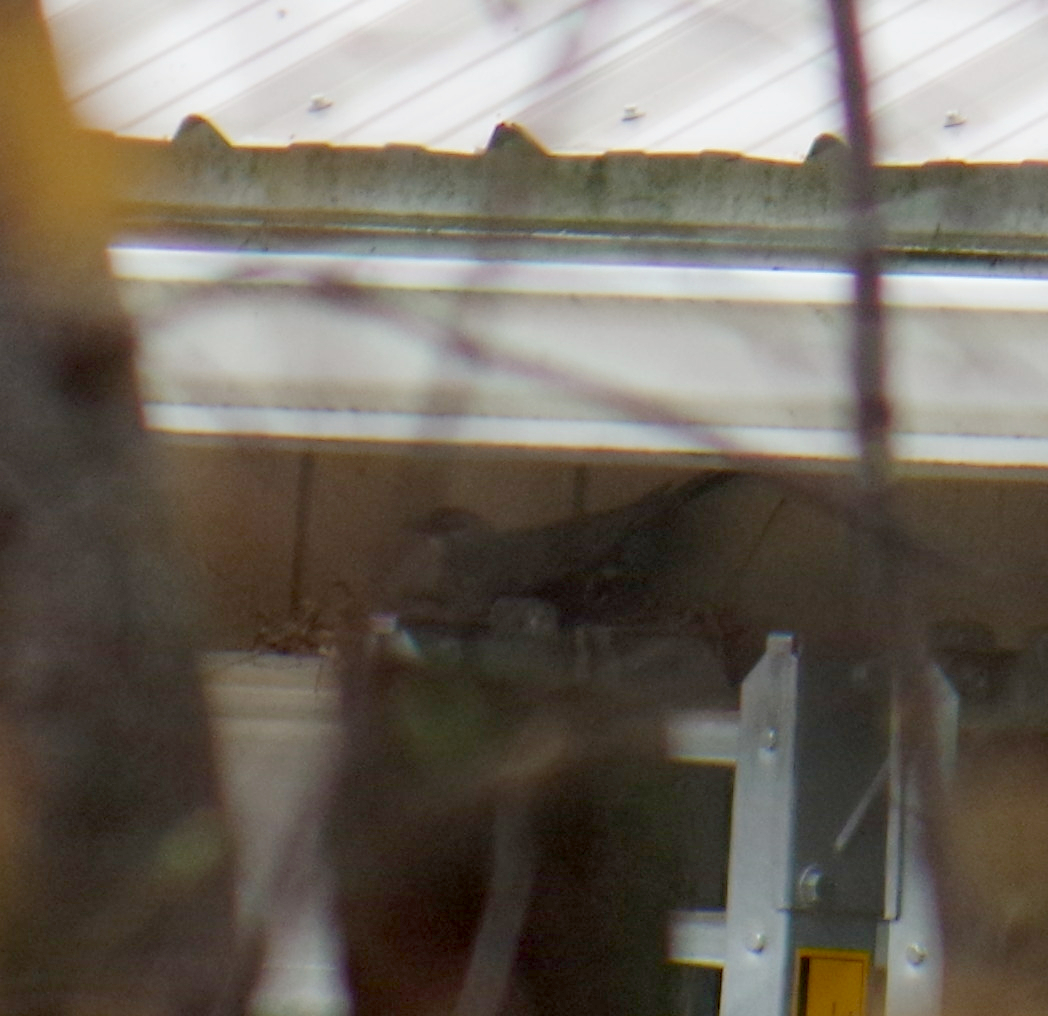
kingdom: Animalia
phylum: Chordata
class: Aves
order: Passeriformes
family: Turdidae
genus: Turdus
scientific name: Turdus migratorius
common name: American robin
